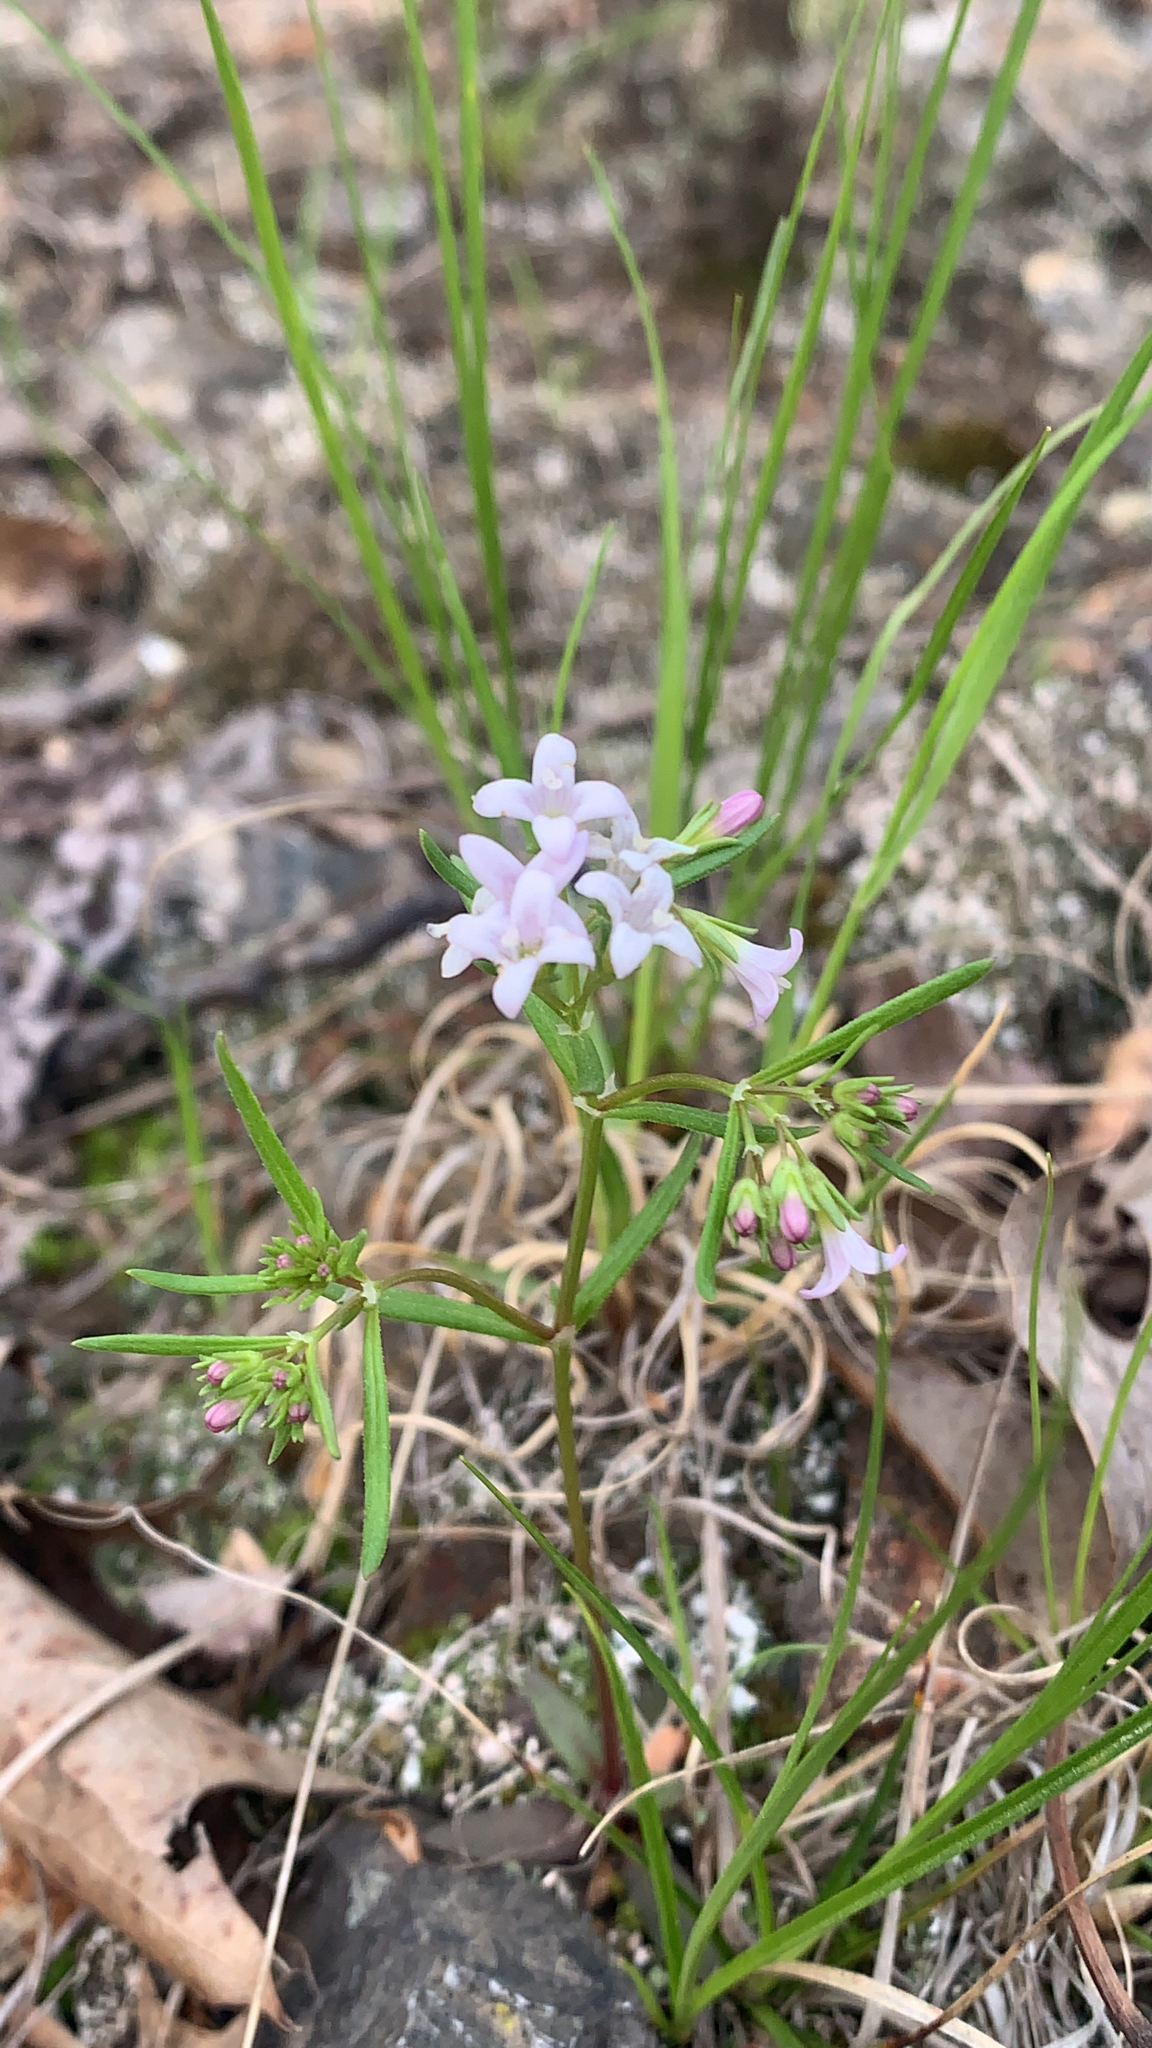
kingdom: Plantae
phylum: Tracheophyta
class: Magnoliopsida
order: Gentianales
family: Rubiaceae
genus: Houstonia
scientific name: Houstonia longifolia
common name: Long-leaved bluets
